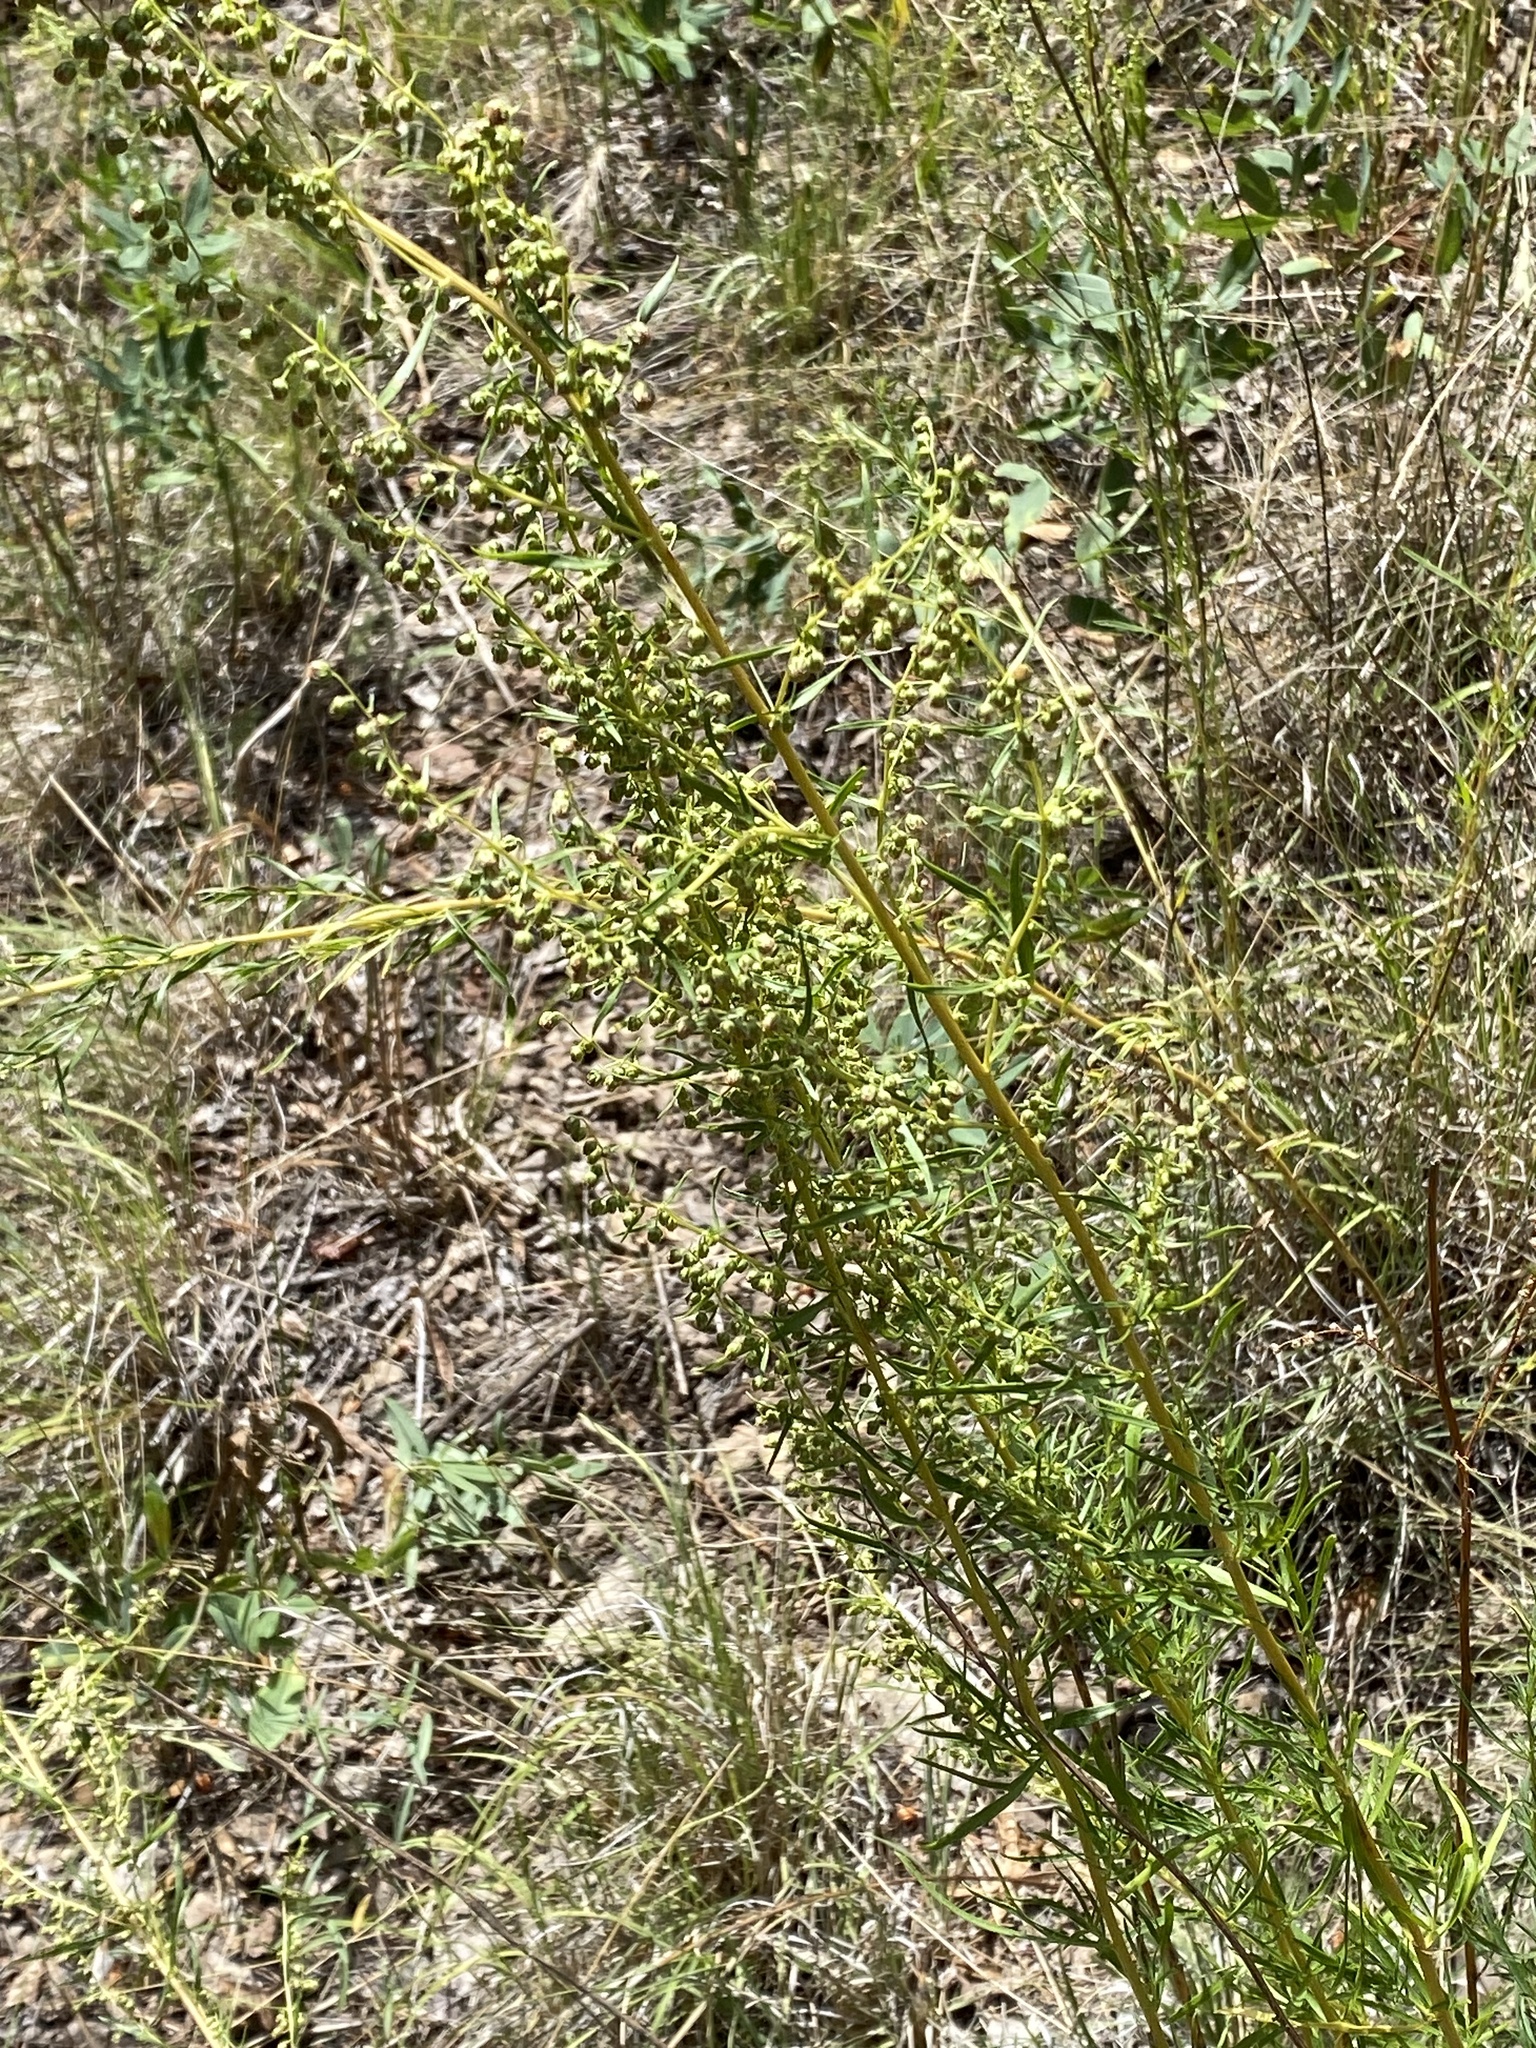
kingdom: Plantae
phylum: Tracheophyta
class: Magnoliopsida
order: Asterales
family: Asteraceae
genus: Artemisia
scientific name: Artemisia dracunculus
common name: Tarragon
